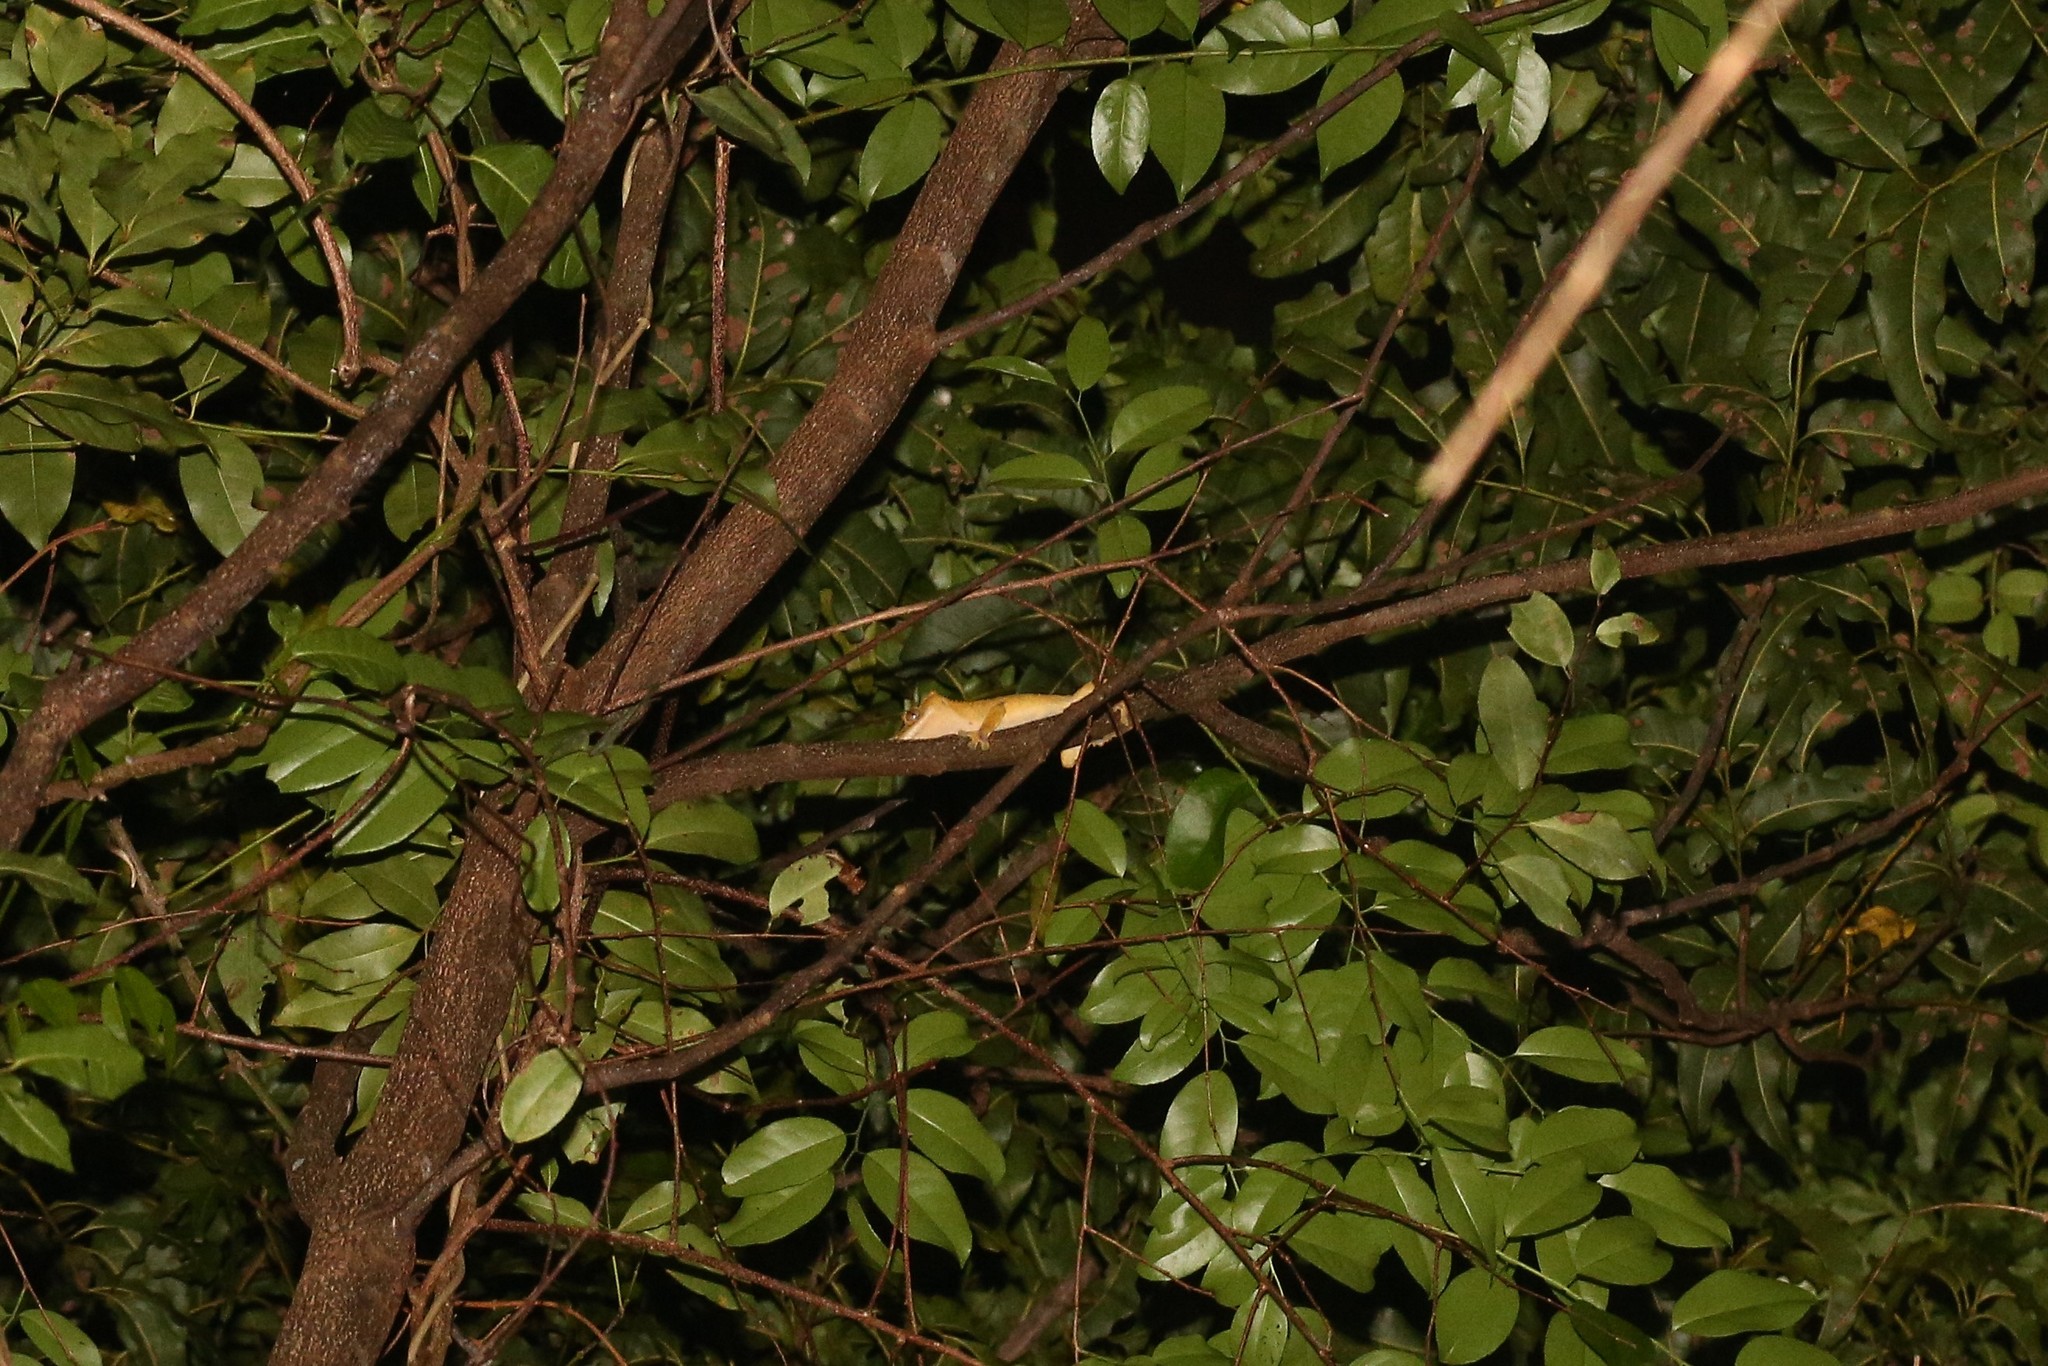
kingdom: Animalia
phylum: Chordata
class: Squamata
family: Diplodactylidae
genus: Correlophus
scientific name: Correlophus ciliatus
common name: Crested gecko
